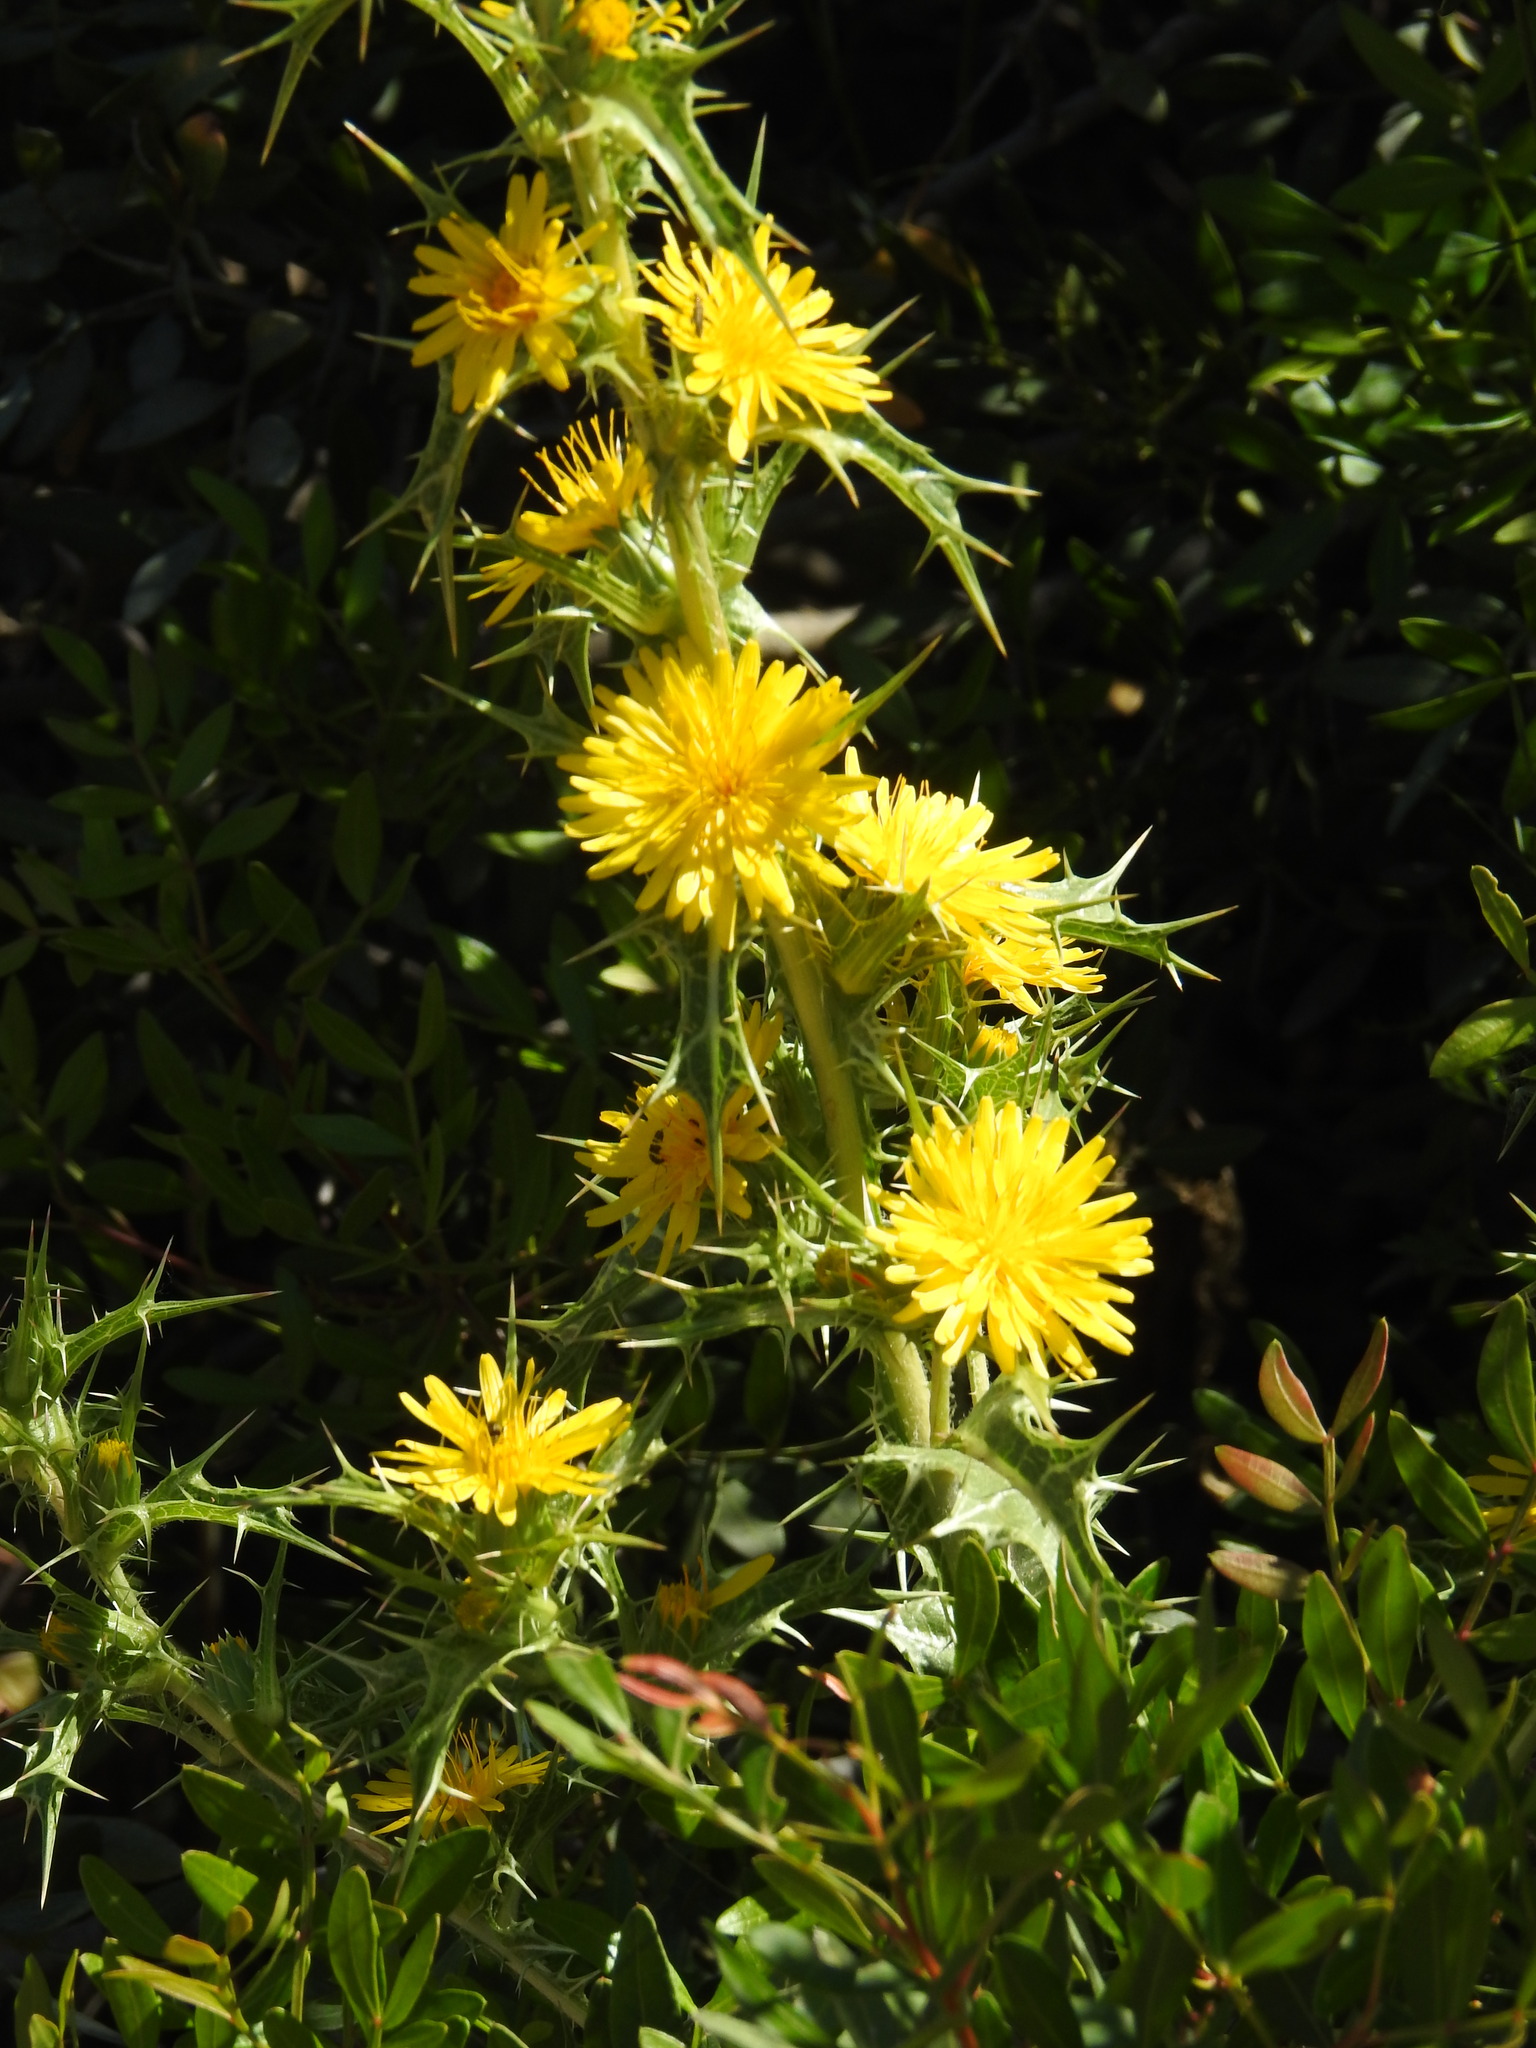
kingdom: Plantae
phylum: Tracheophyta
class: Magnoliopsida
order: Asterales
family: Asteraceae
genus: Scolymus
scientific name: Scolymus hispanicus
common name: Golden thistle
